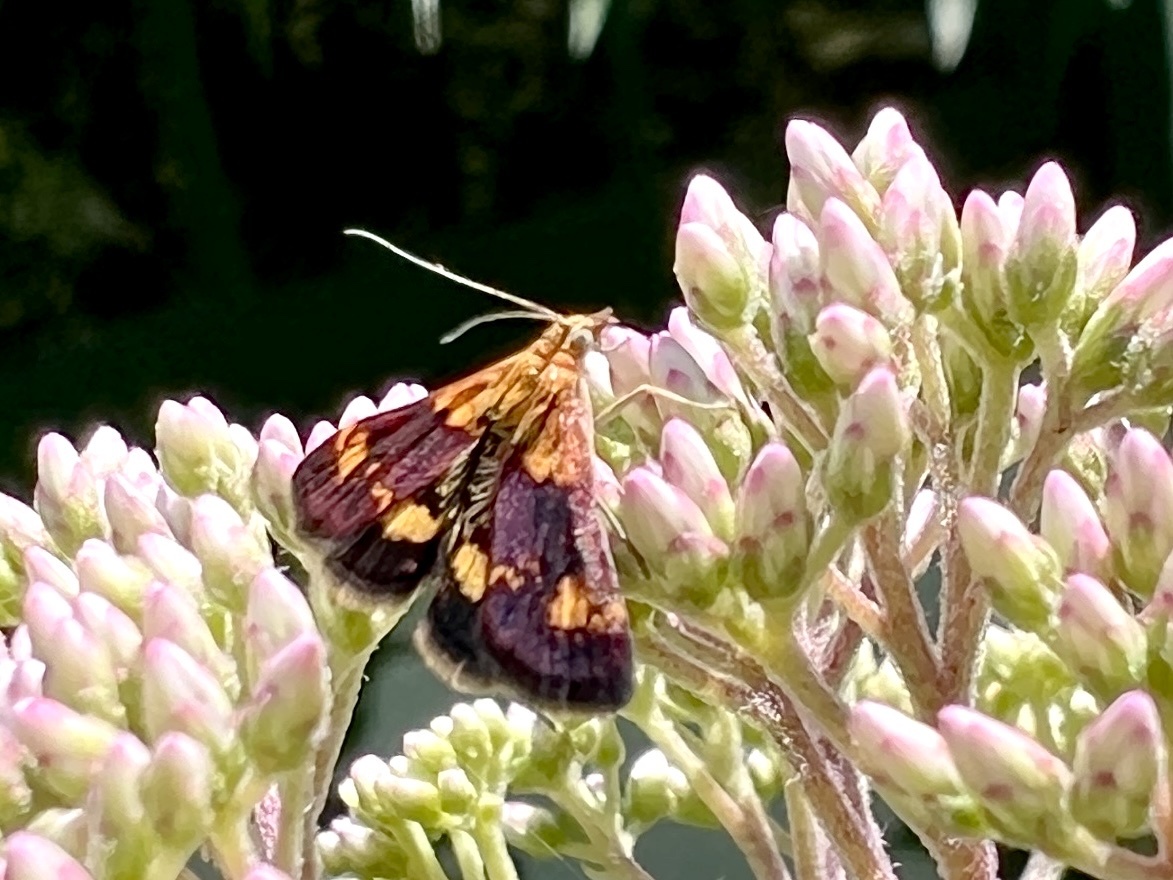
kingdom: Animalia
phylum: Arthropoda
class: Insecta
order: Lepidoptera
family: Crambidae
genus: Pyrausta
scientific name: Pyrausta orphisalis
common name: Orange mint moth
